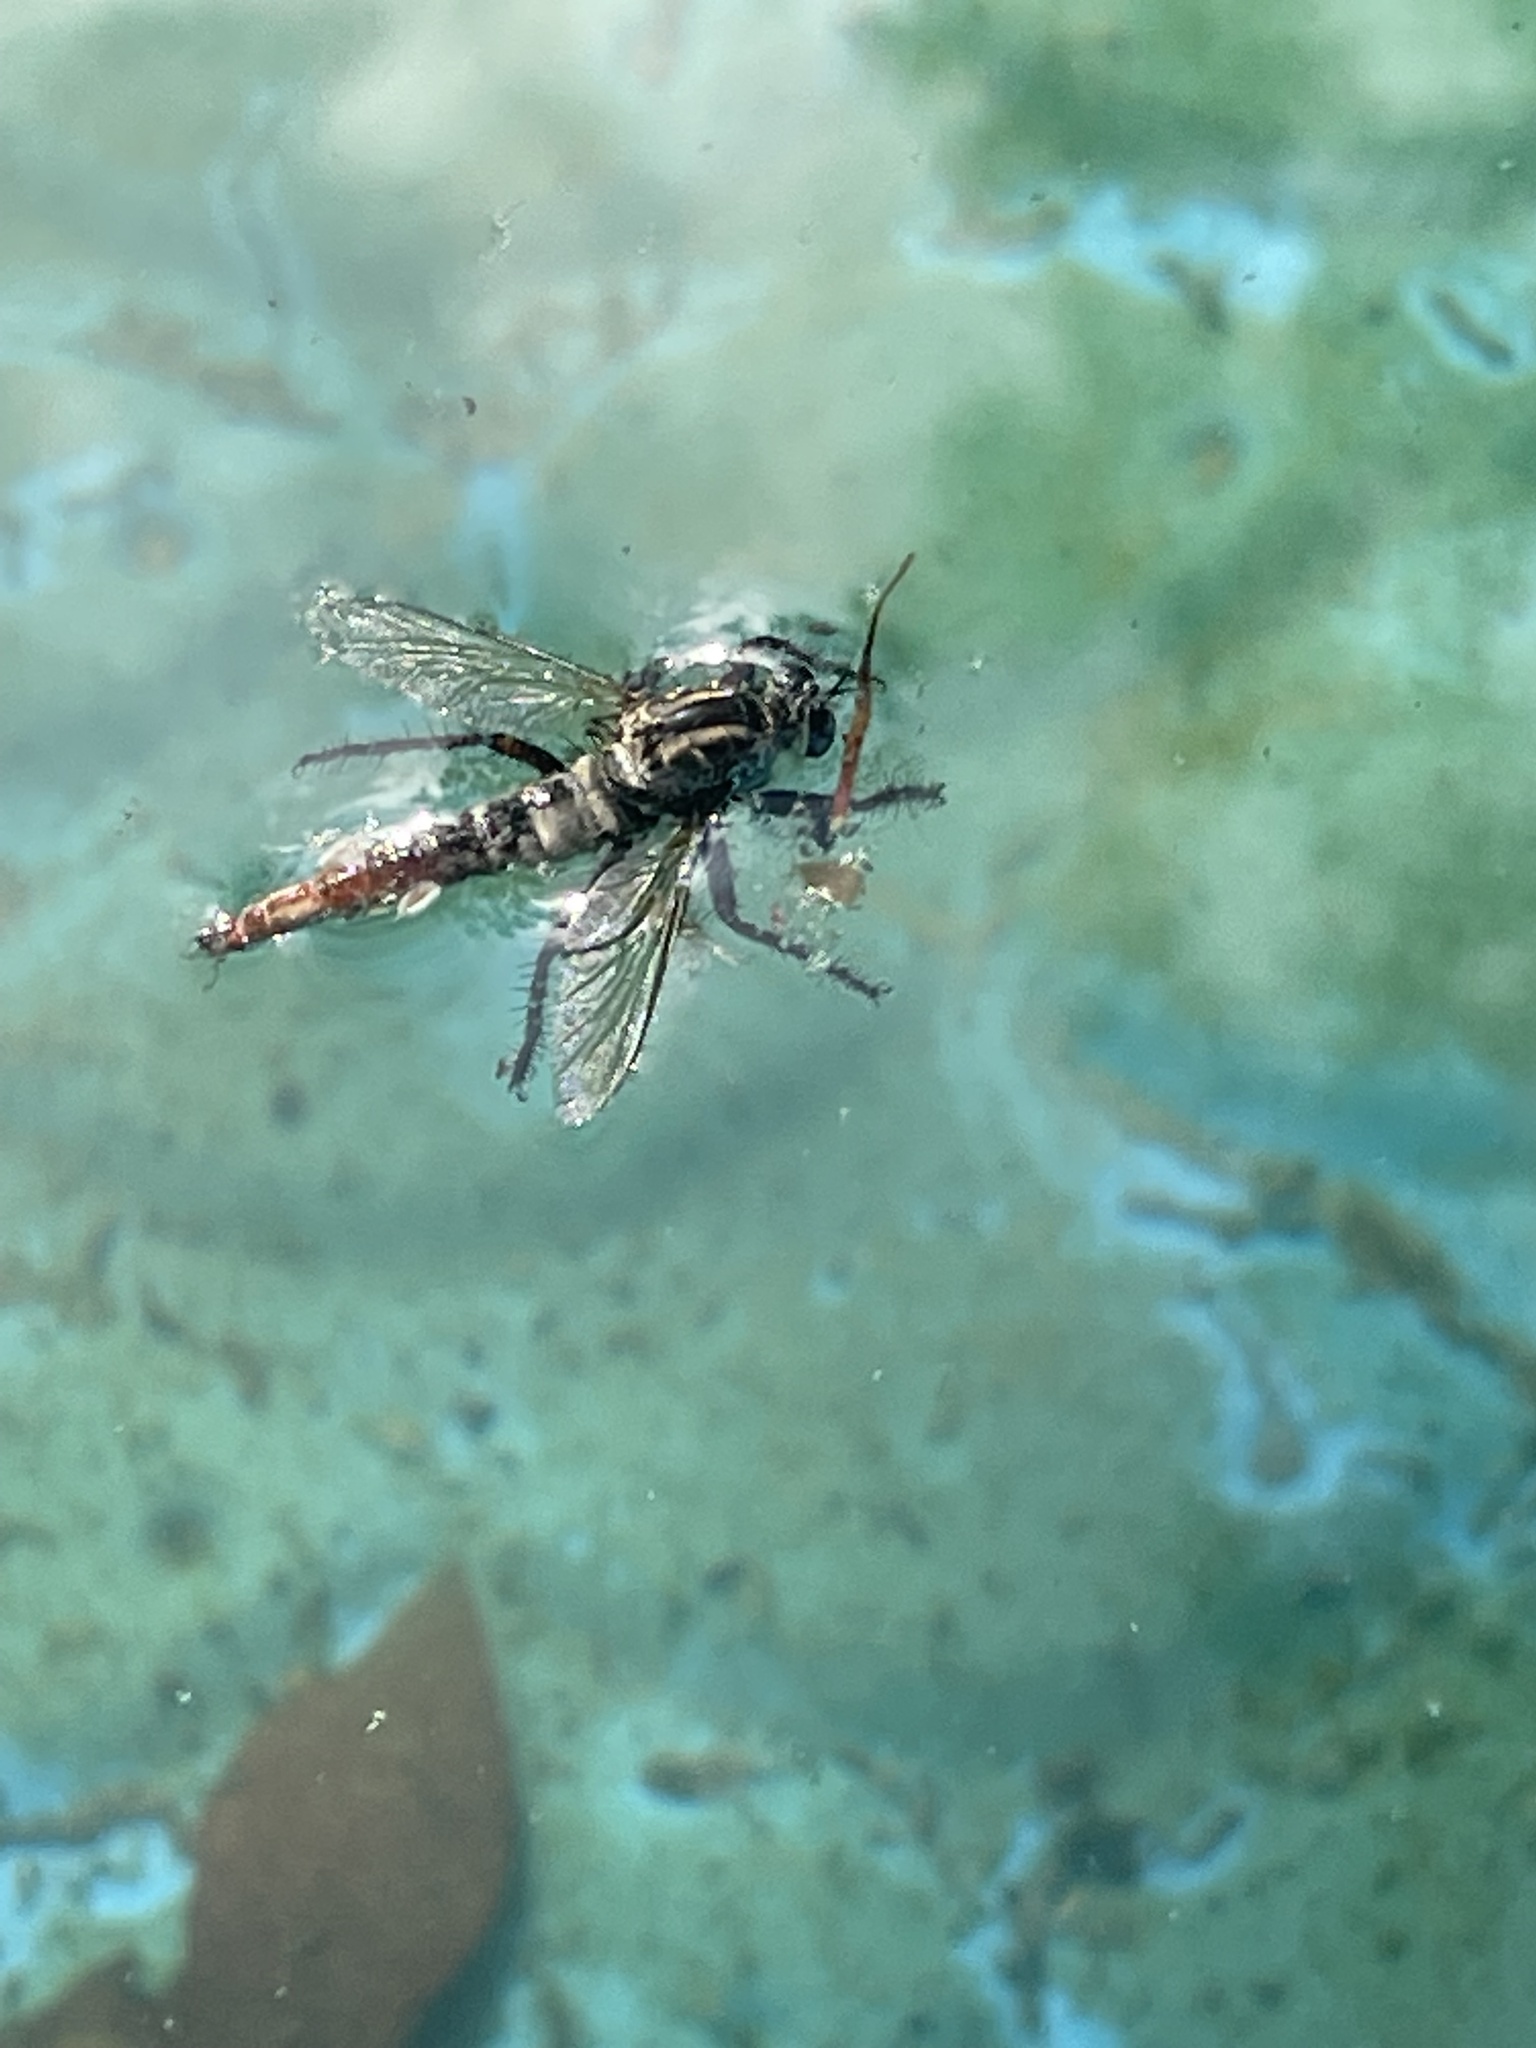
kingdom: Animalia
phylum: Arthropoda
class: Insecta
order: Diptera
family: Asilidae
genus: Proctacanthus
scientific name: Proctacanthus brevipennis
